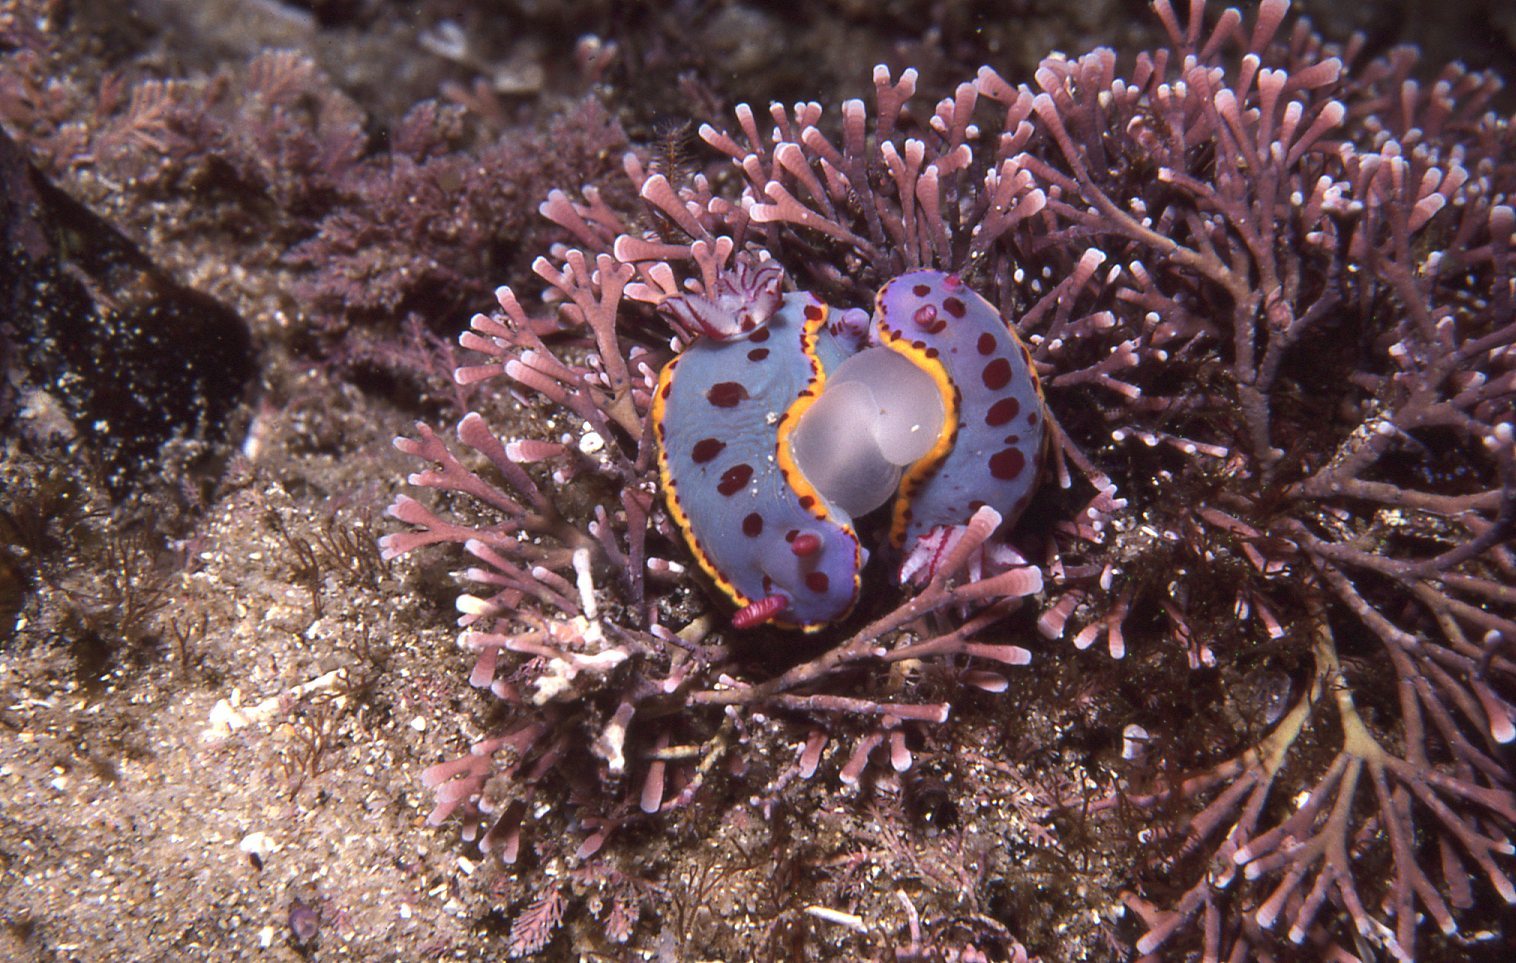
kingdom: Animalia
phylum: Mollusca
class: Gastropoda
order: Nudibranchia
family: Chromodorididae
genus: Hypselodoris
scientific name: Hypselodoris bennetti
